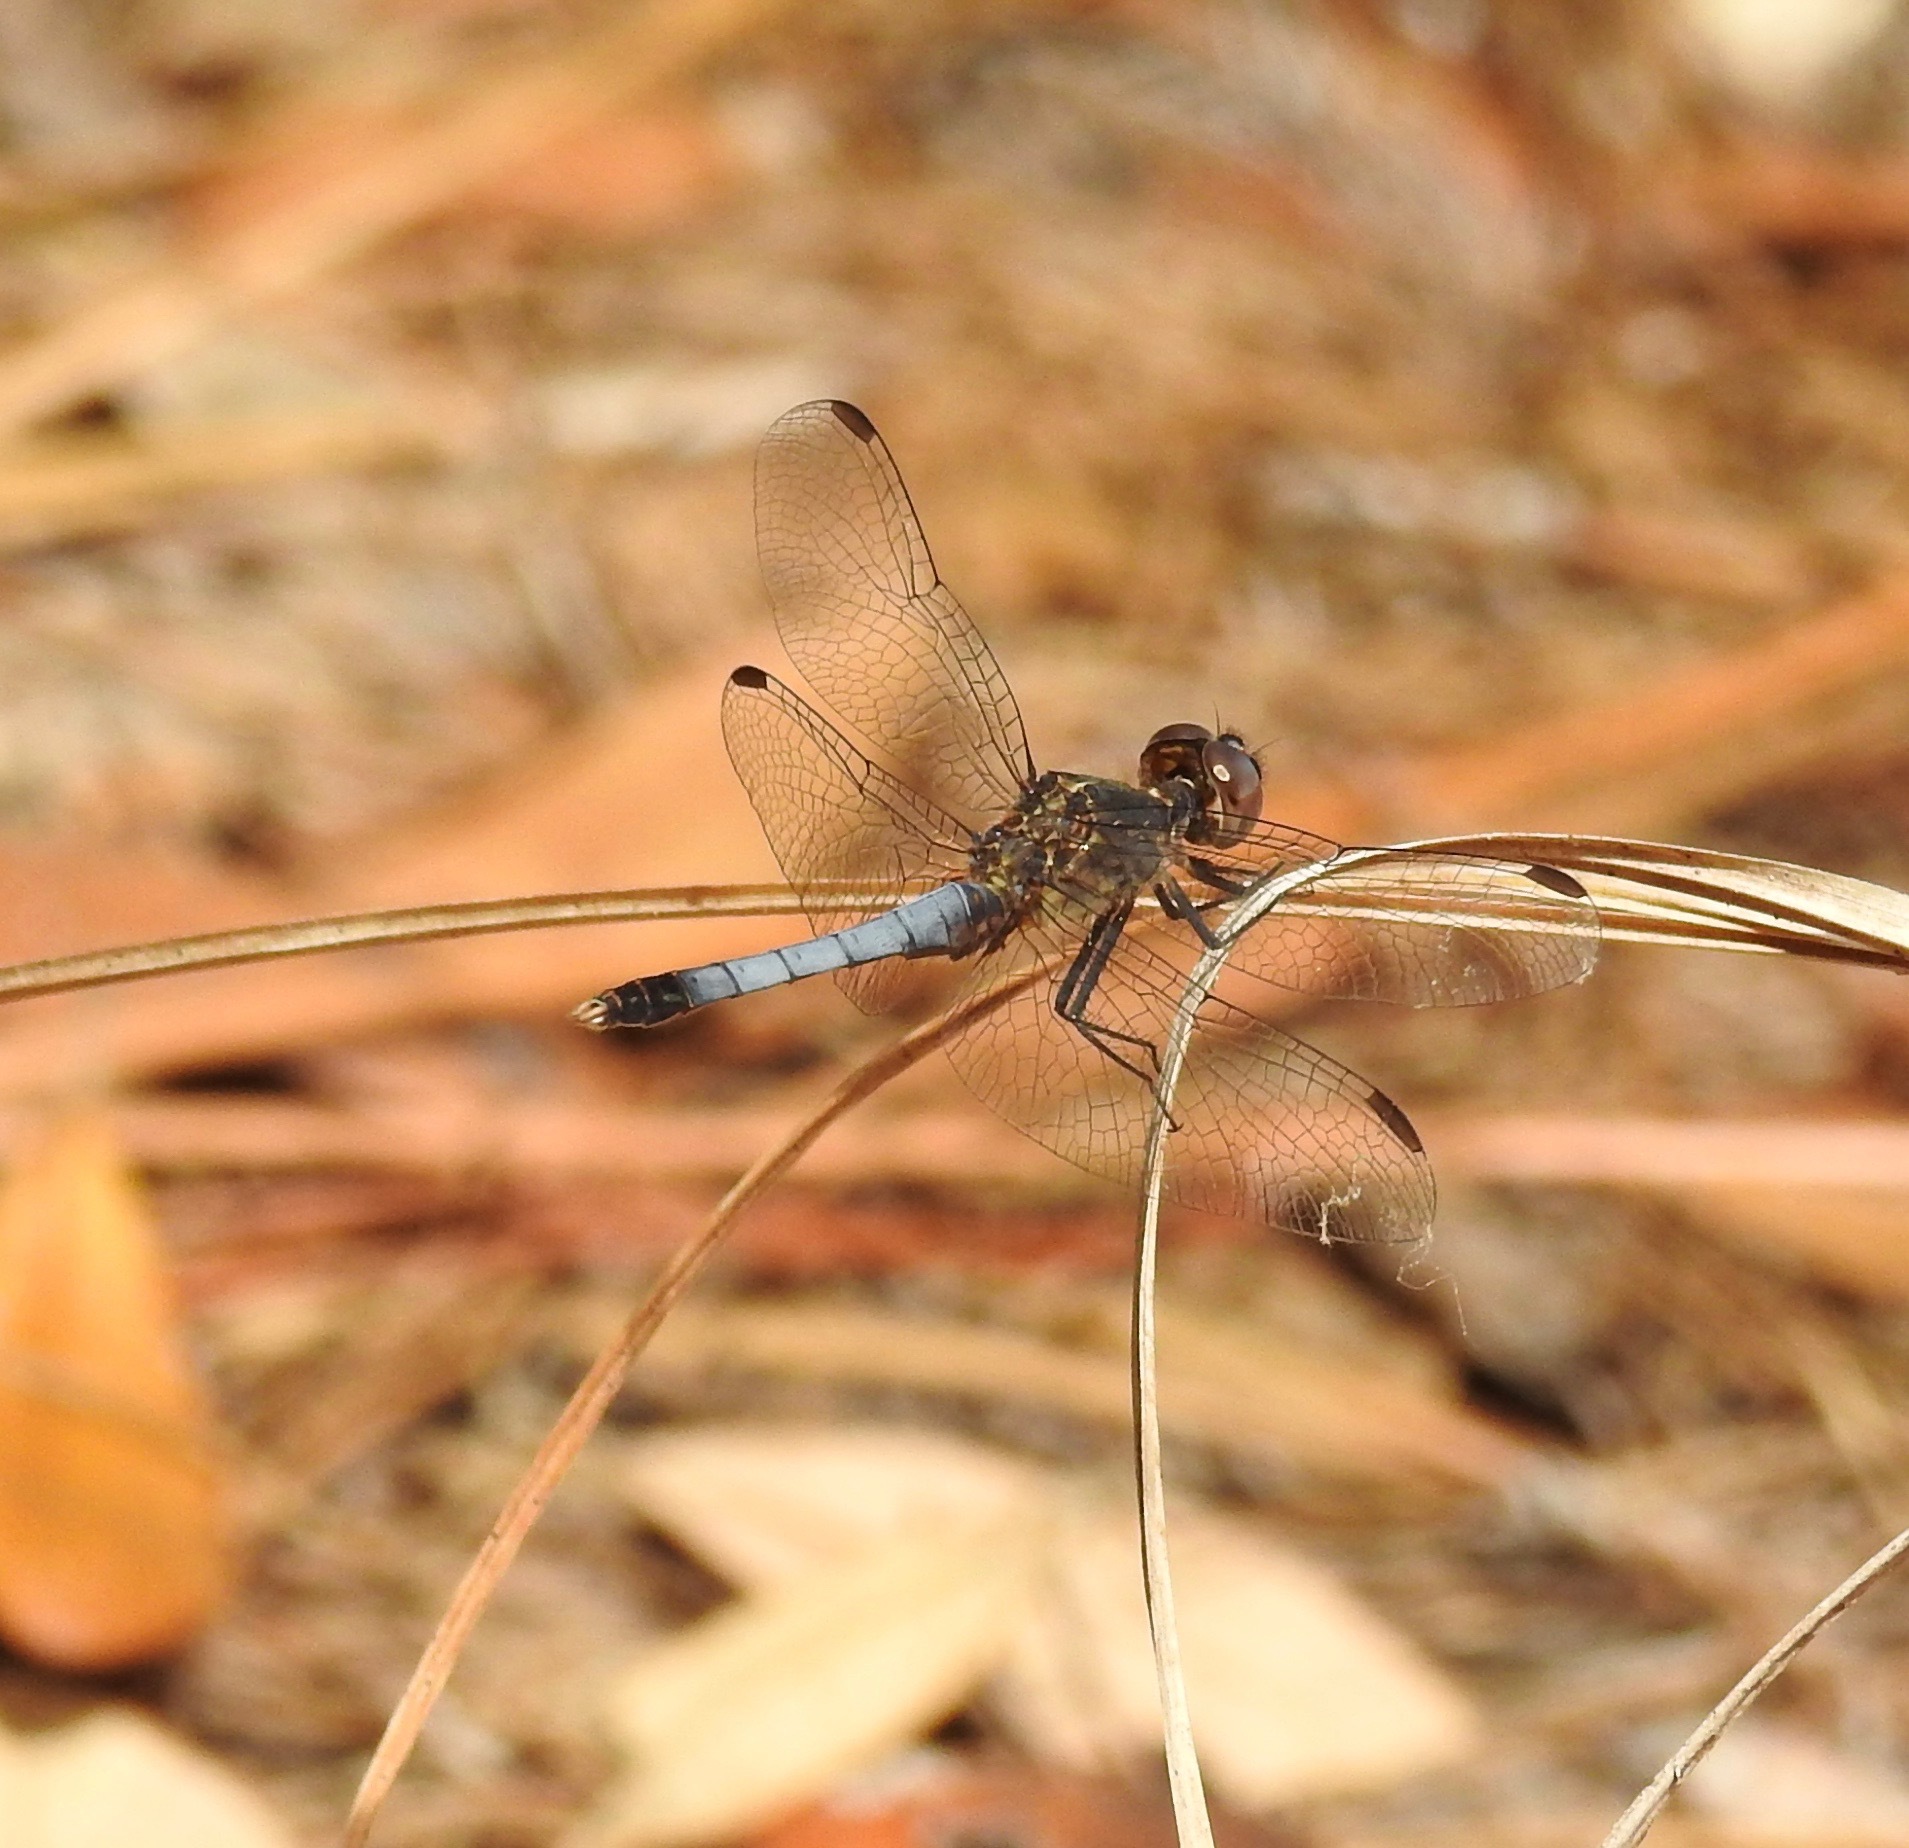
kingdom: Animalia
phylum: Arthropoda
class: Insecta
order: Odonata
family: Libellulidae
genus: Erythrodiplax
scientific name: Erythrodiplax minuscula
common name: Little blue dragonlet
